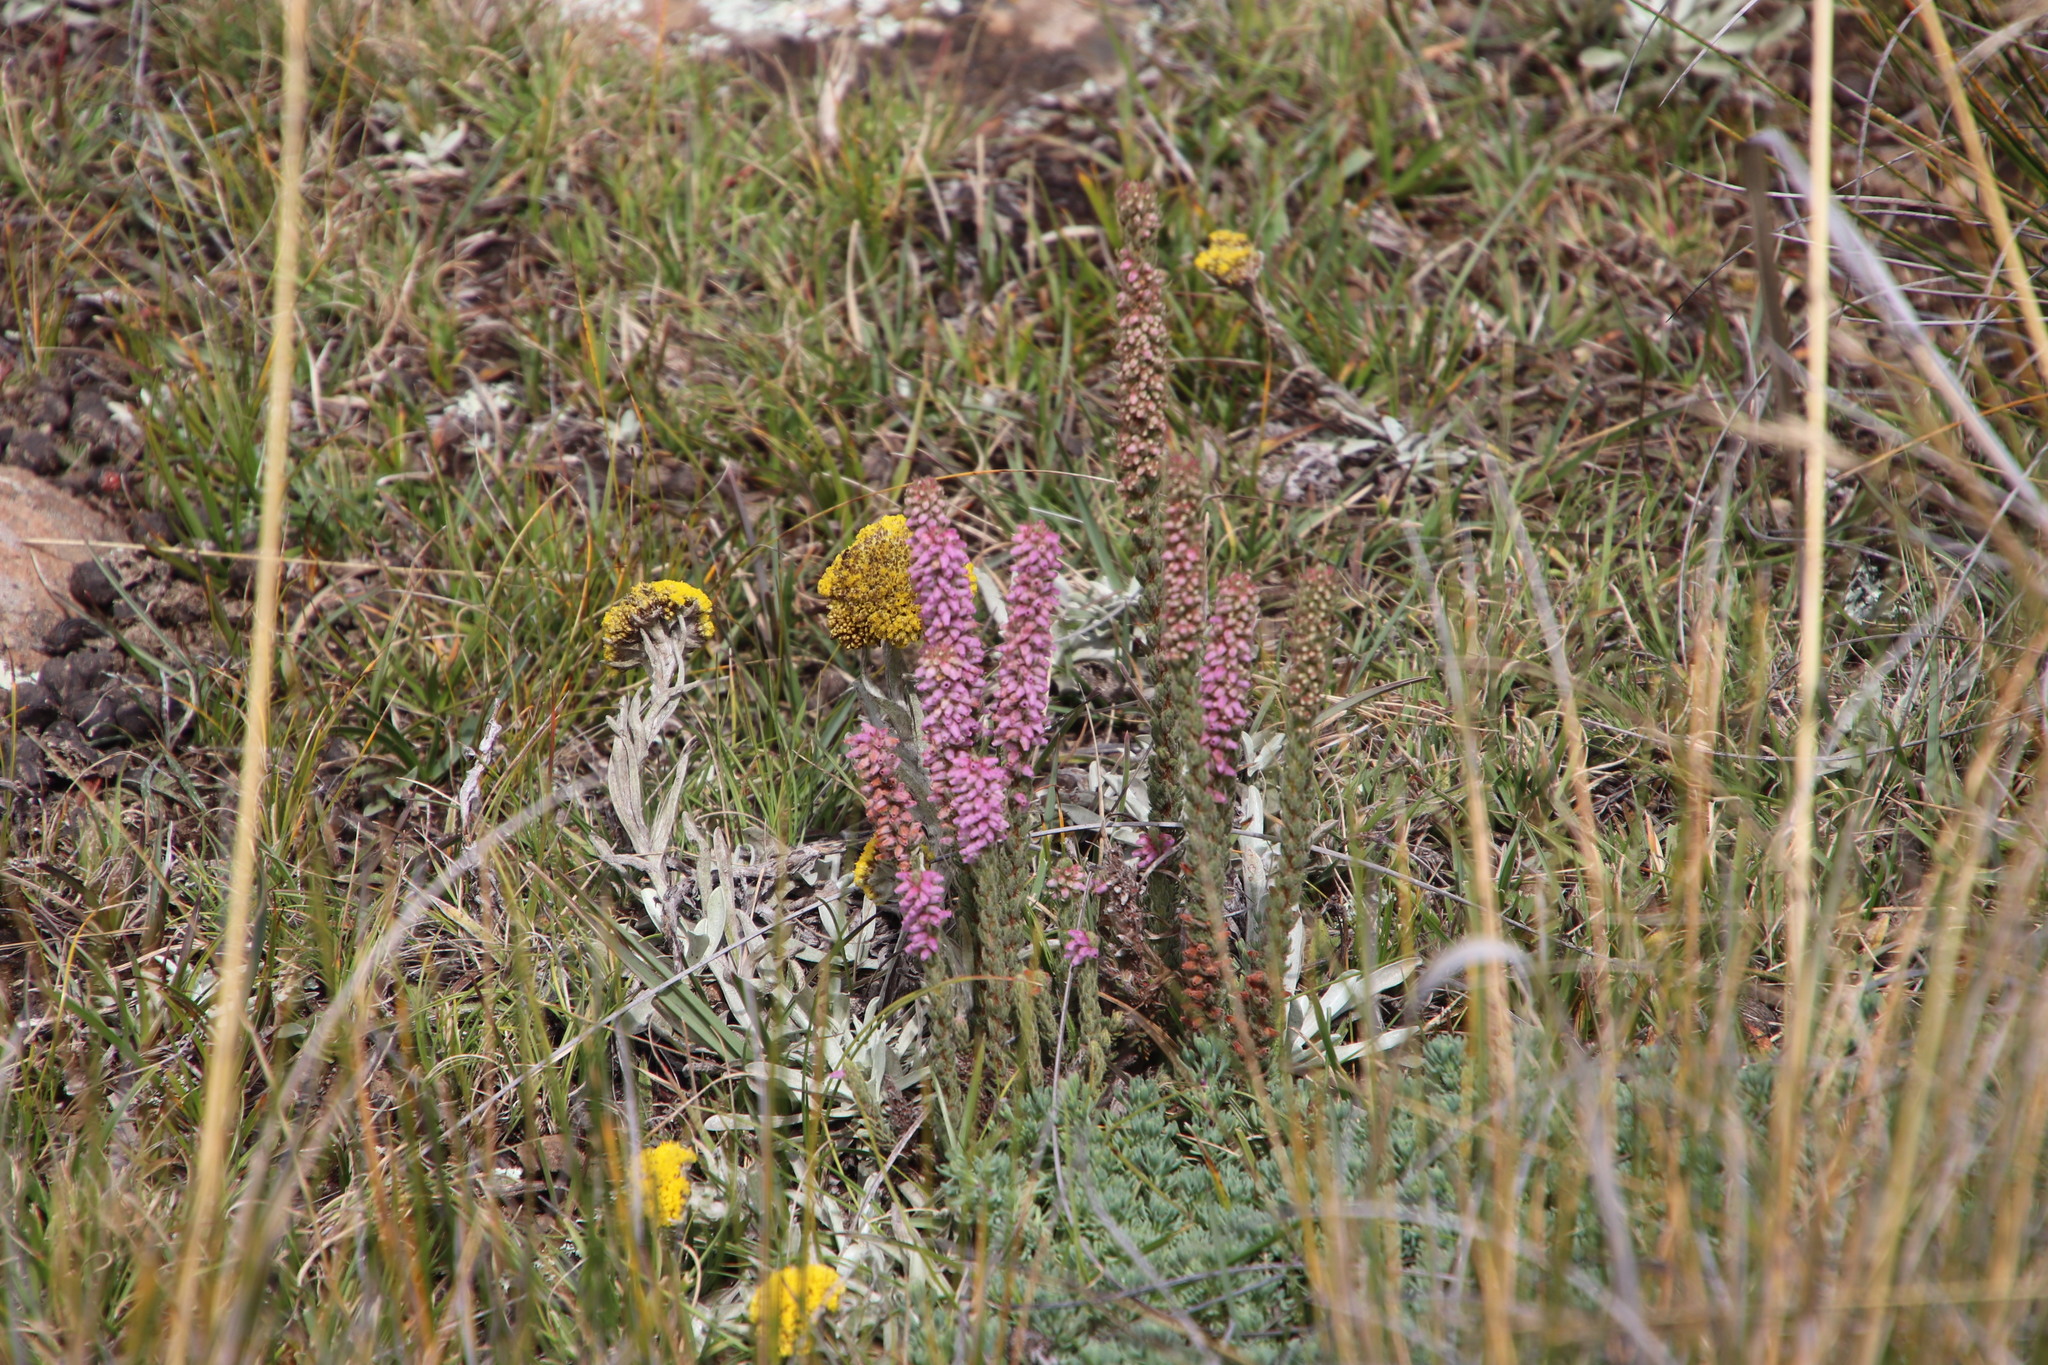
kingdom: Plantae
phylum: Tracheophyta
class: Magnoliopsida
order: Ericales
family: Ericaceae
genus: Erica
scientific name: Erica alopecurus
